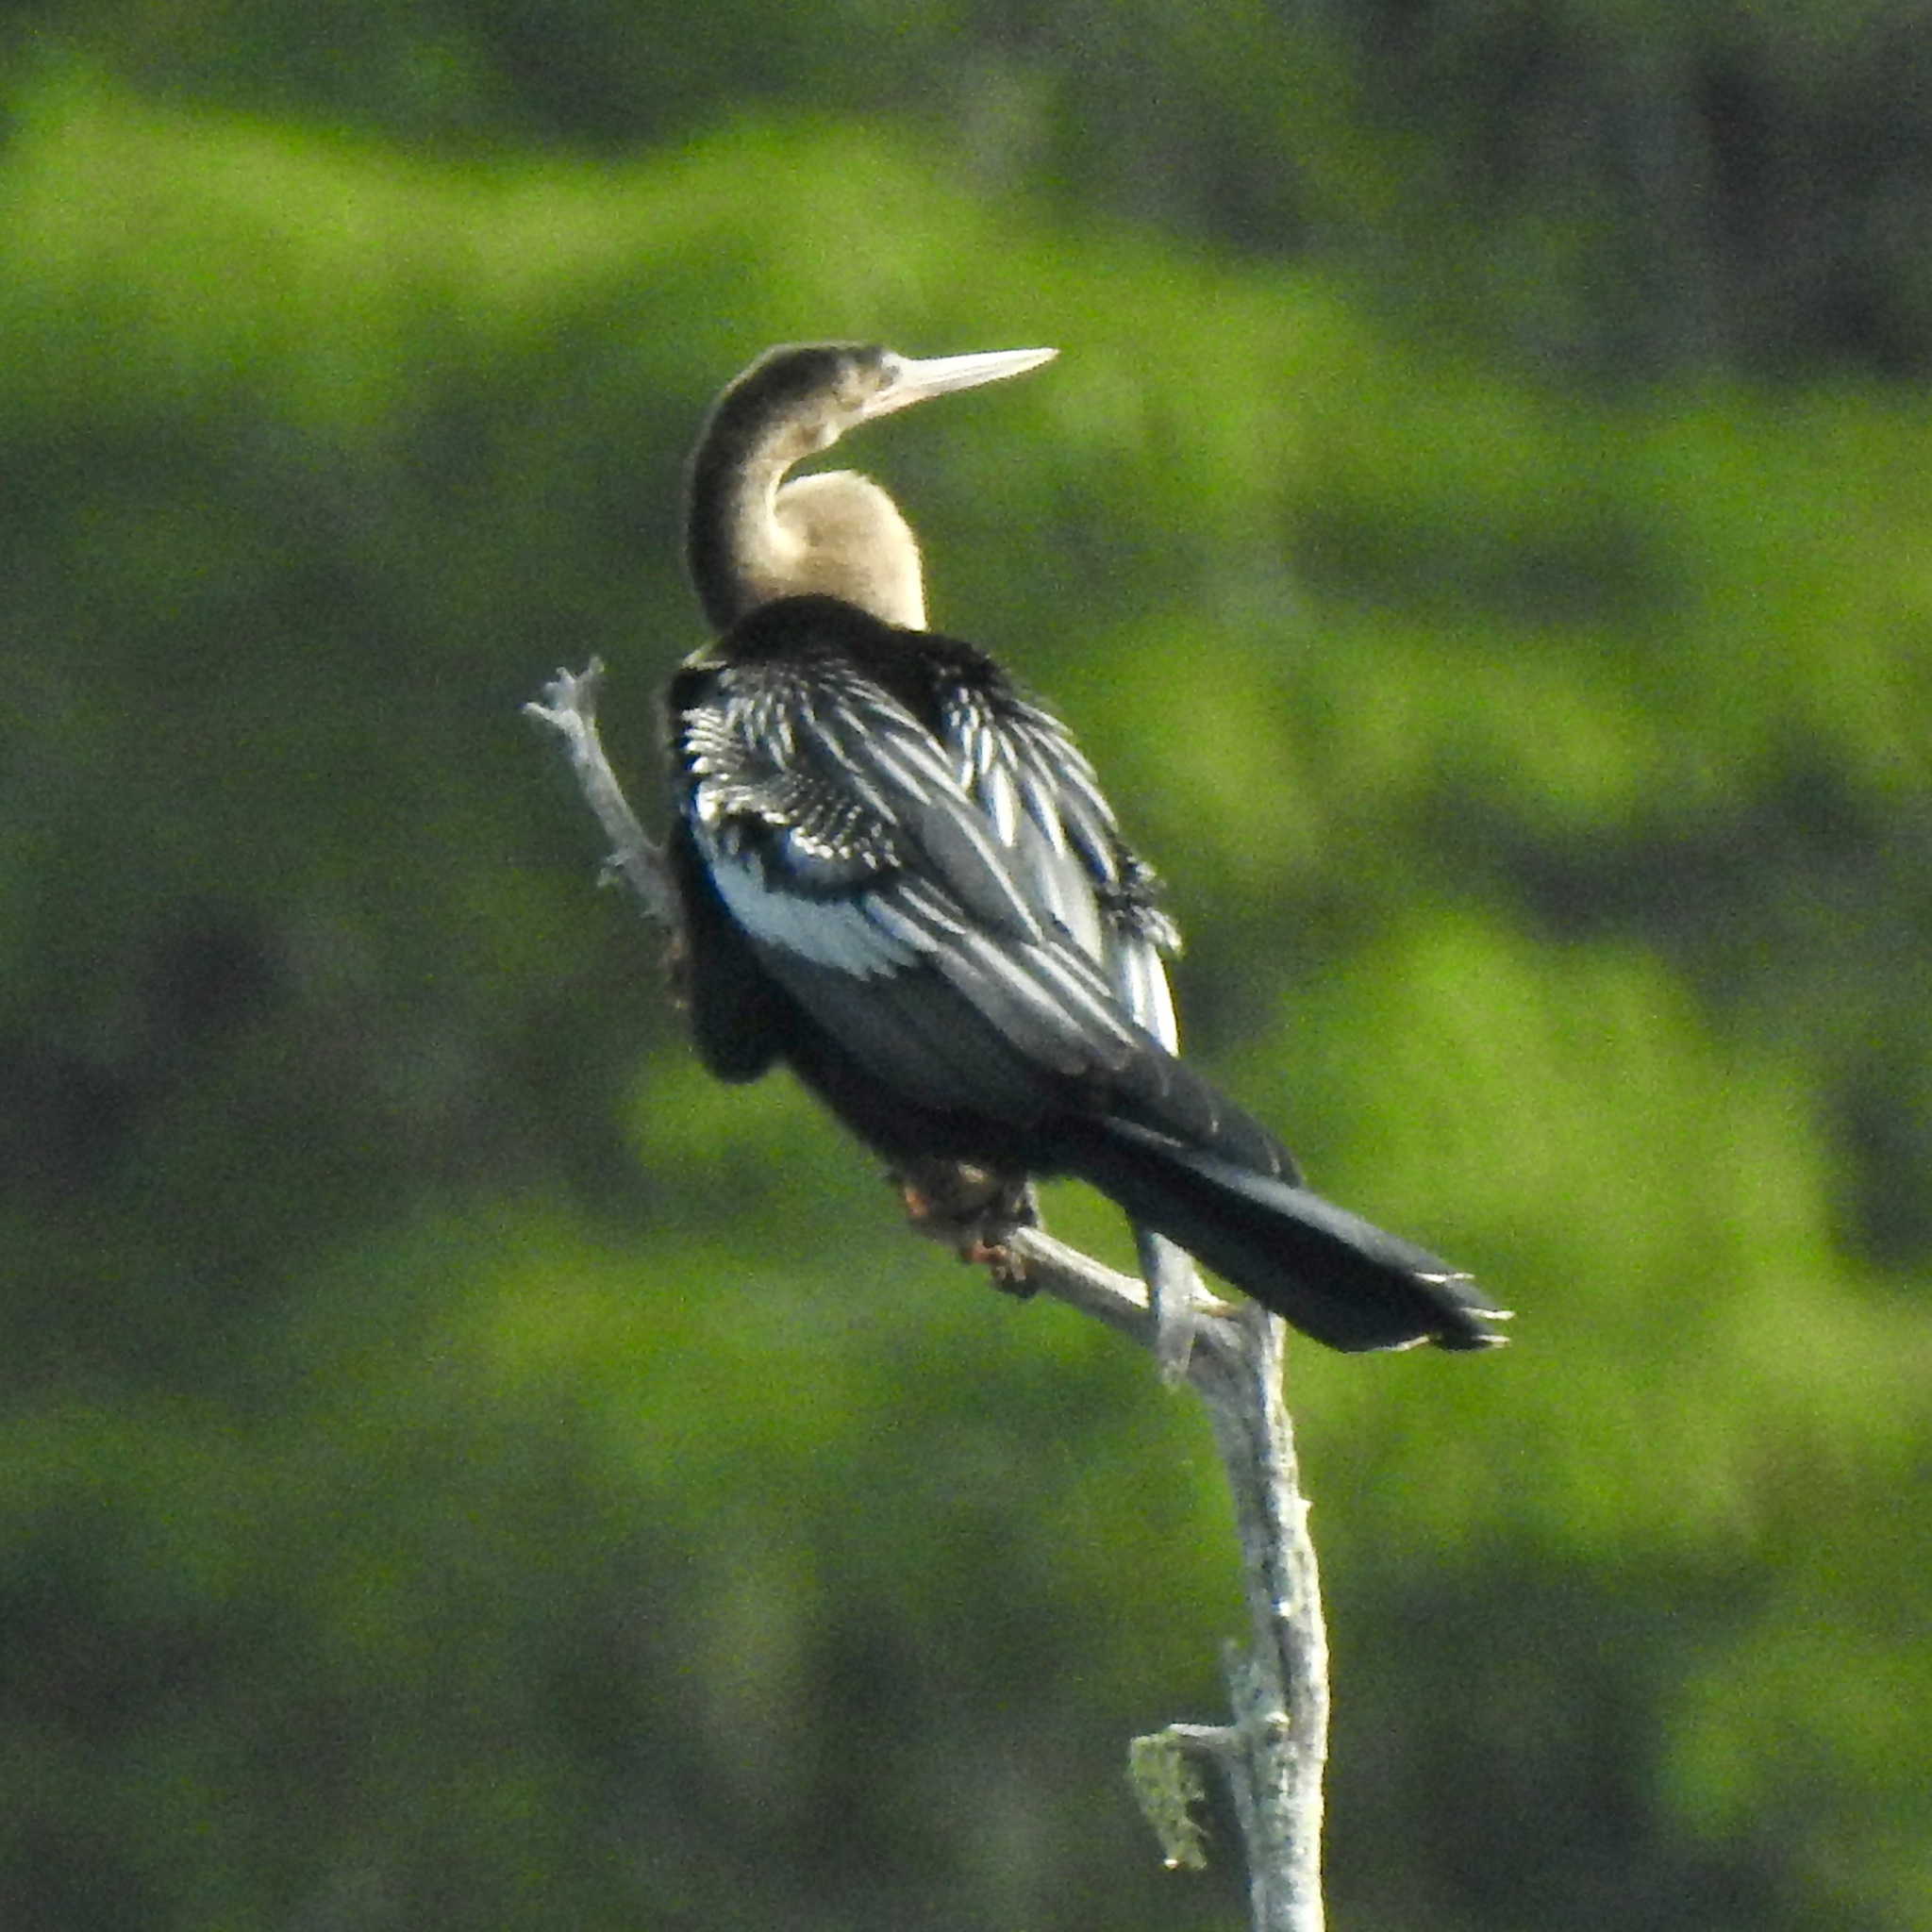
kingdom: Animalia
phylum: Chordata
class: Aves
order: Suliformes
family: Anhingidae
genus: Anhinga
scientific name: Anhinga anhinga
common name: Anhinga
